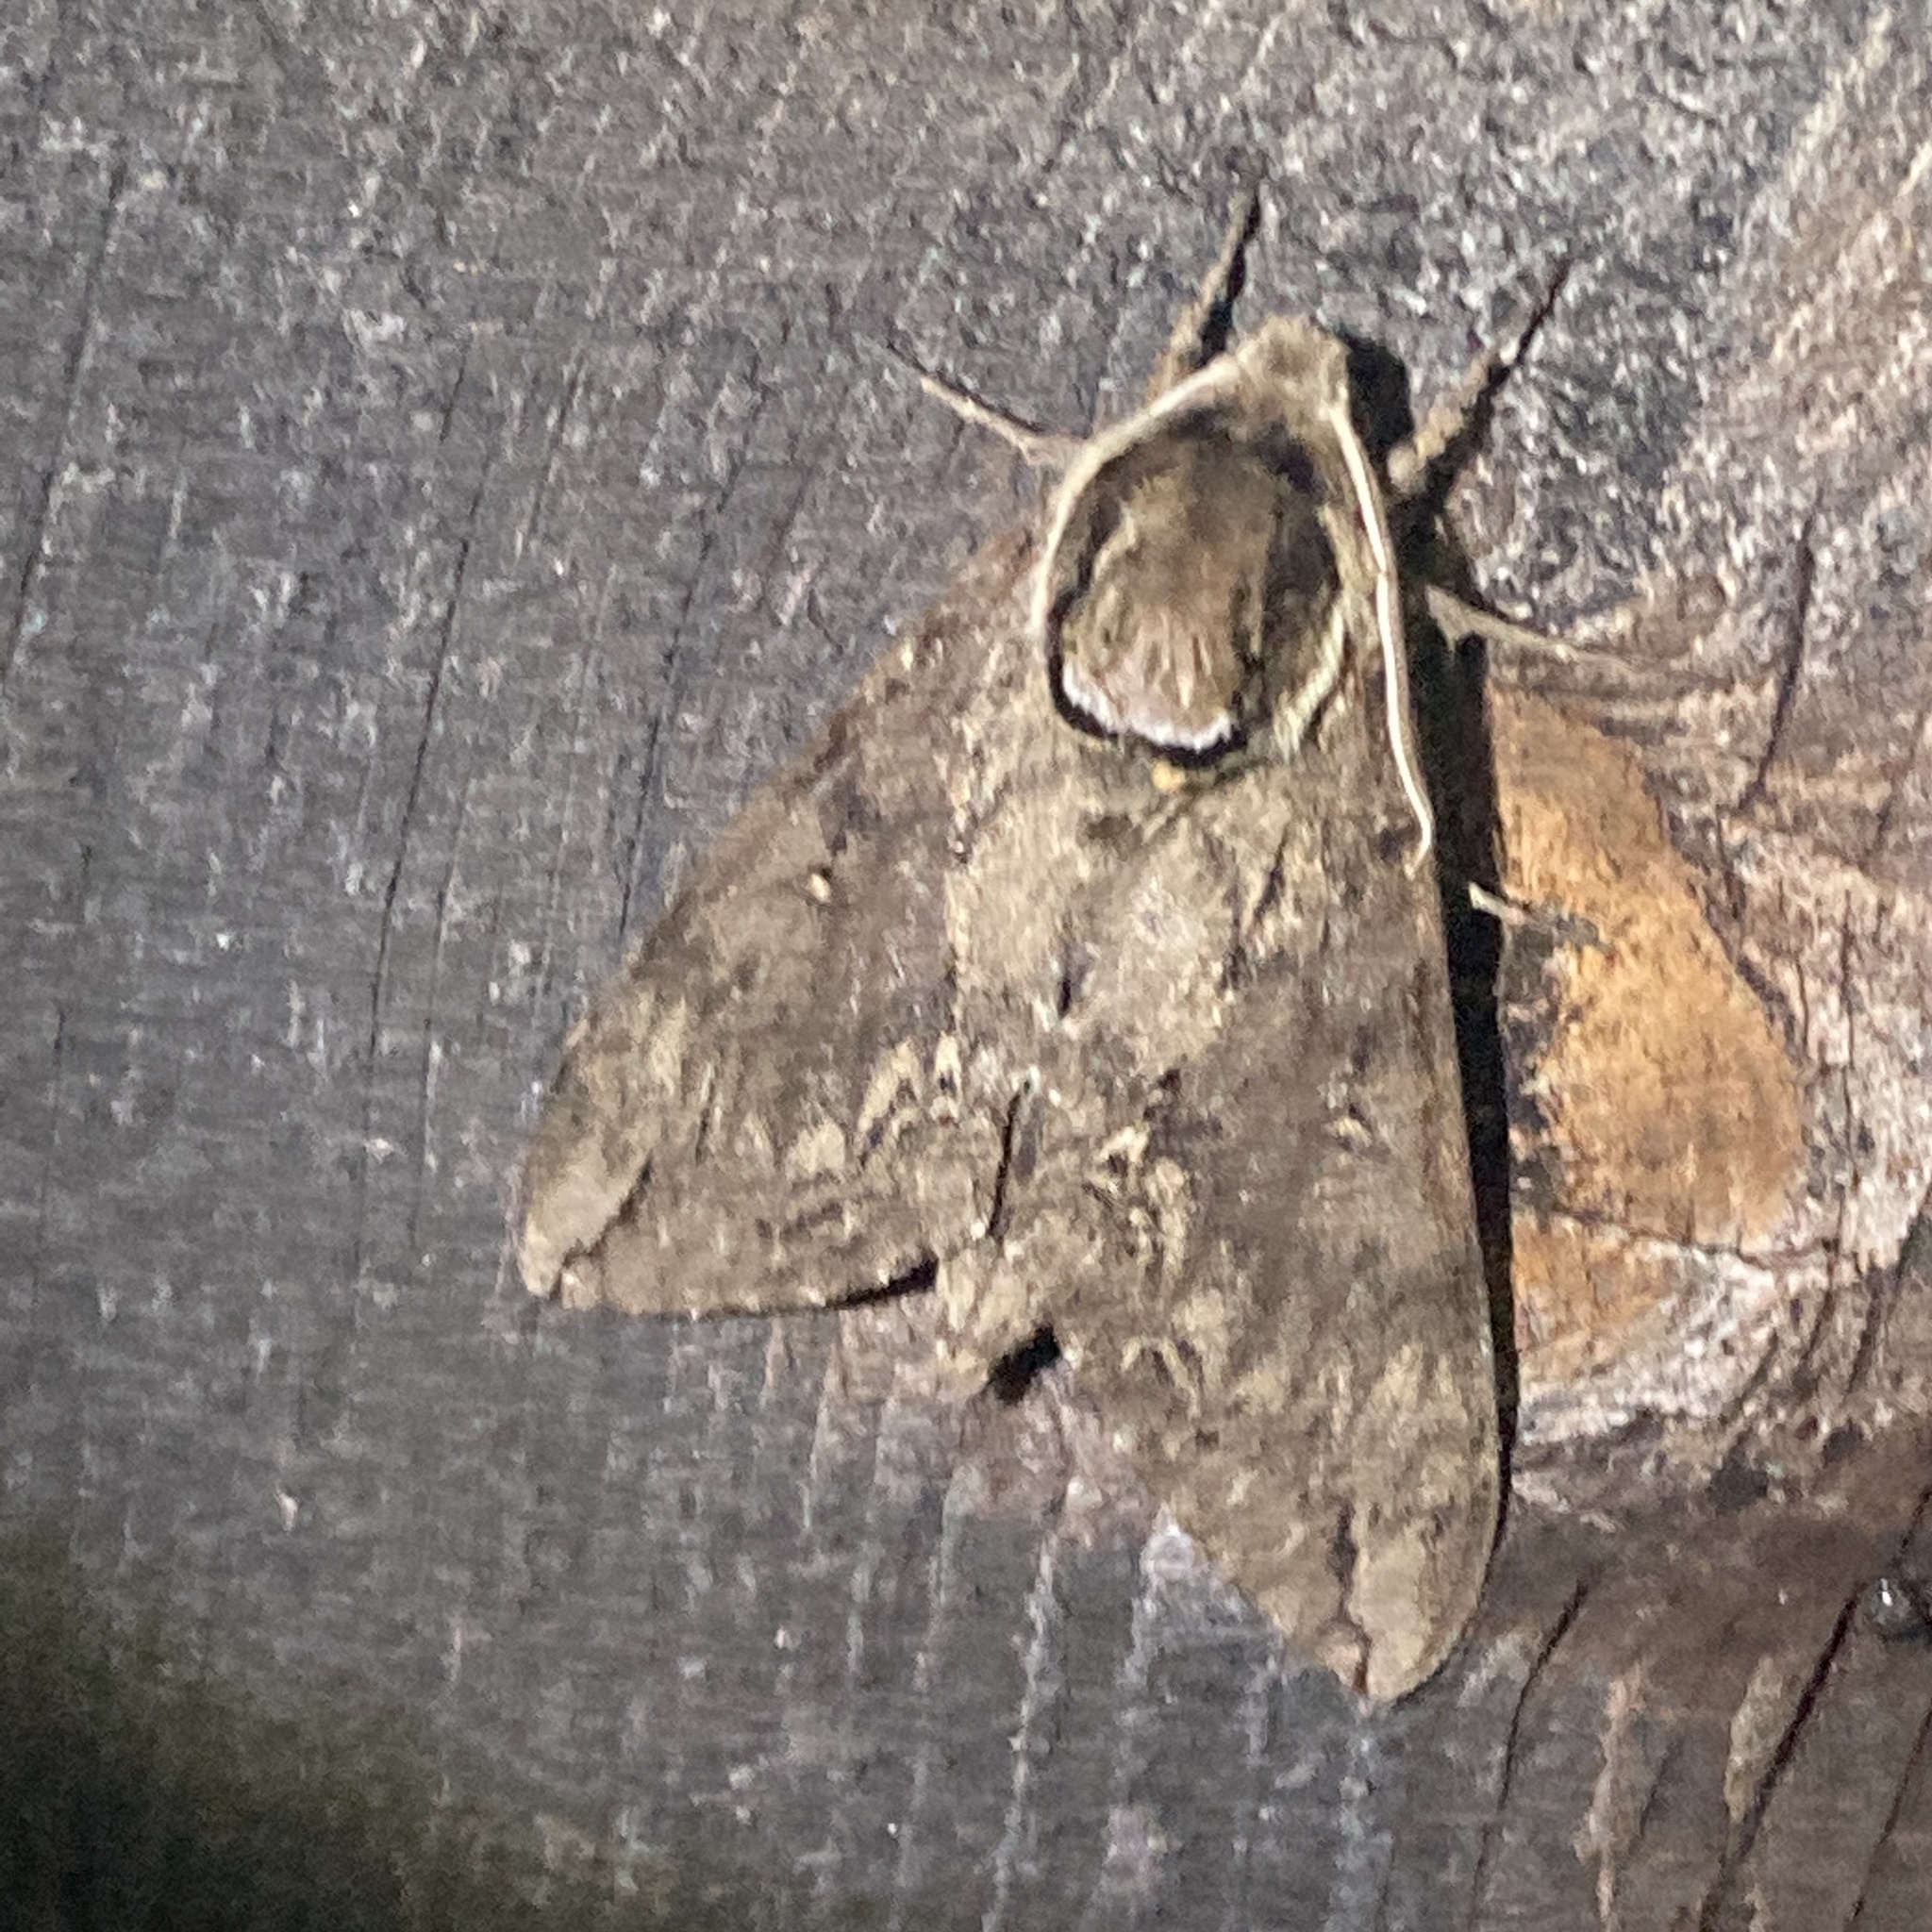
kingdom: Animalia
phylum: Arthropoda
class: Insecta
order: Lepidoptera
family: Sphingidae
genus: Ceratomia
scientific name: Ceratomia catalpae
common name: Catalpa hornworm
